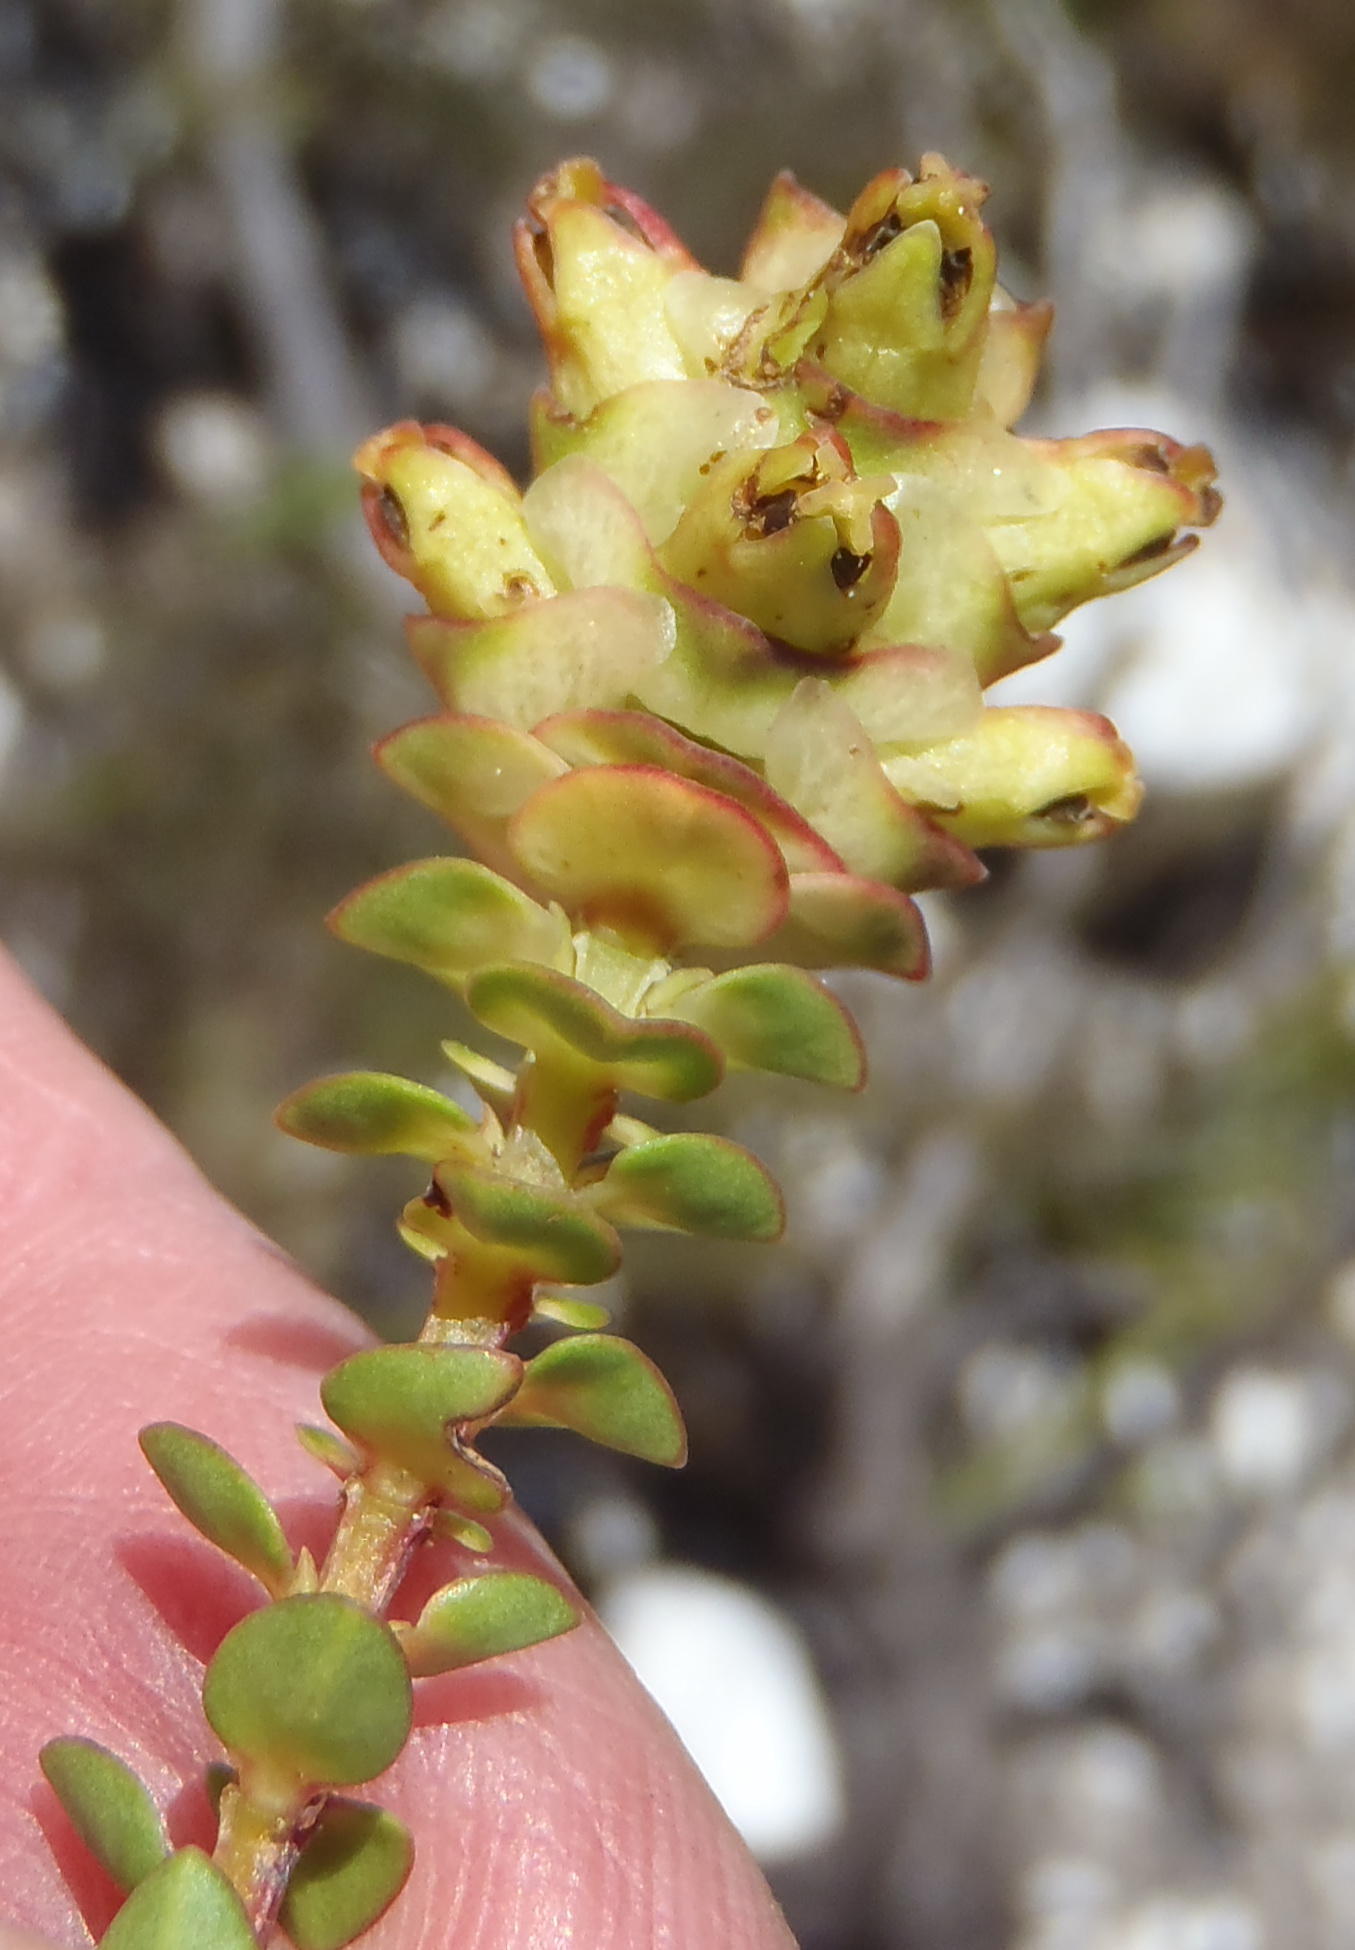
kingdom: Plantae
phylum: Tracheophyta
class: Magnoliopsida
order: Myrtales
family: Penaeaceae
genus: Penaea
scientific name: Penaea cneorum
